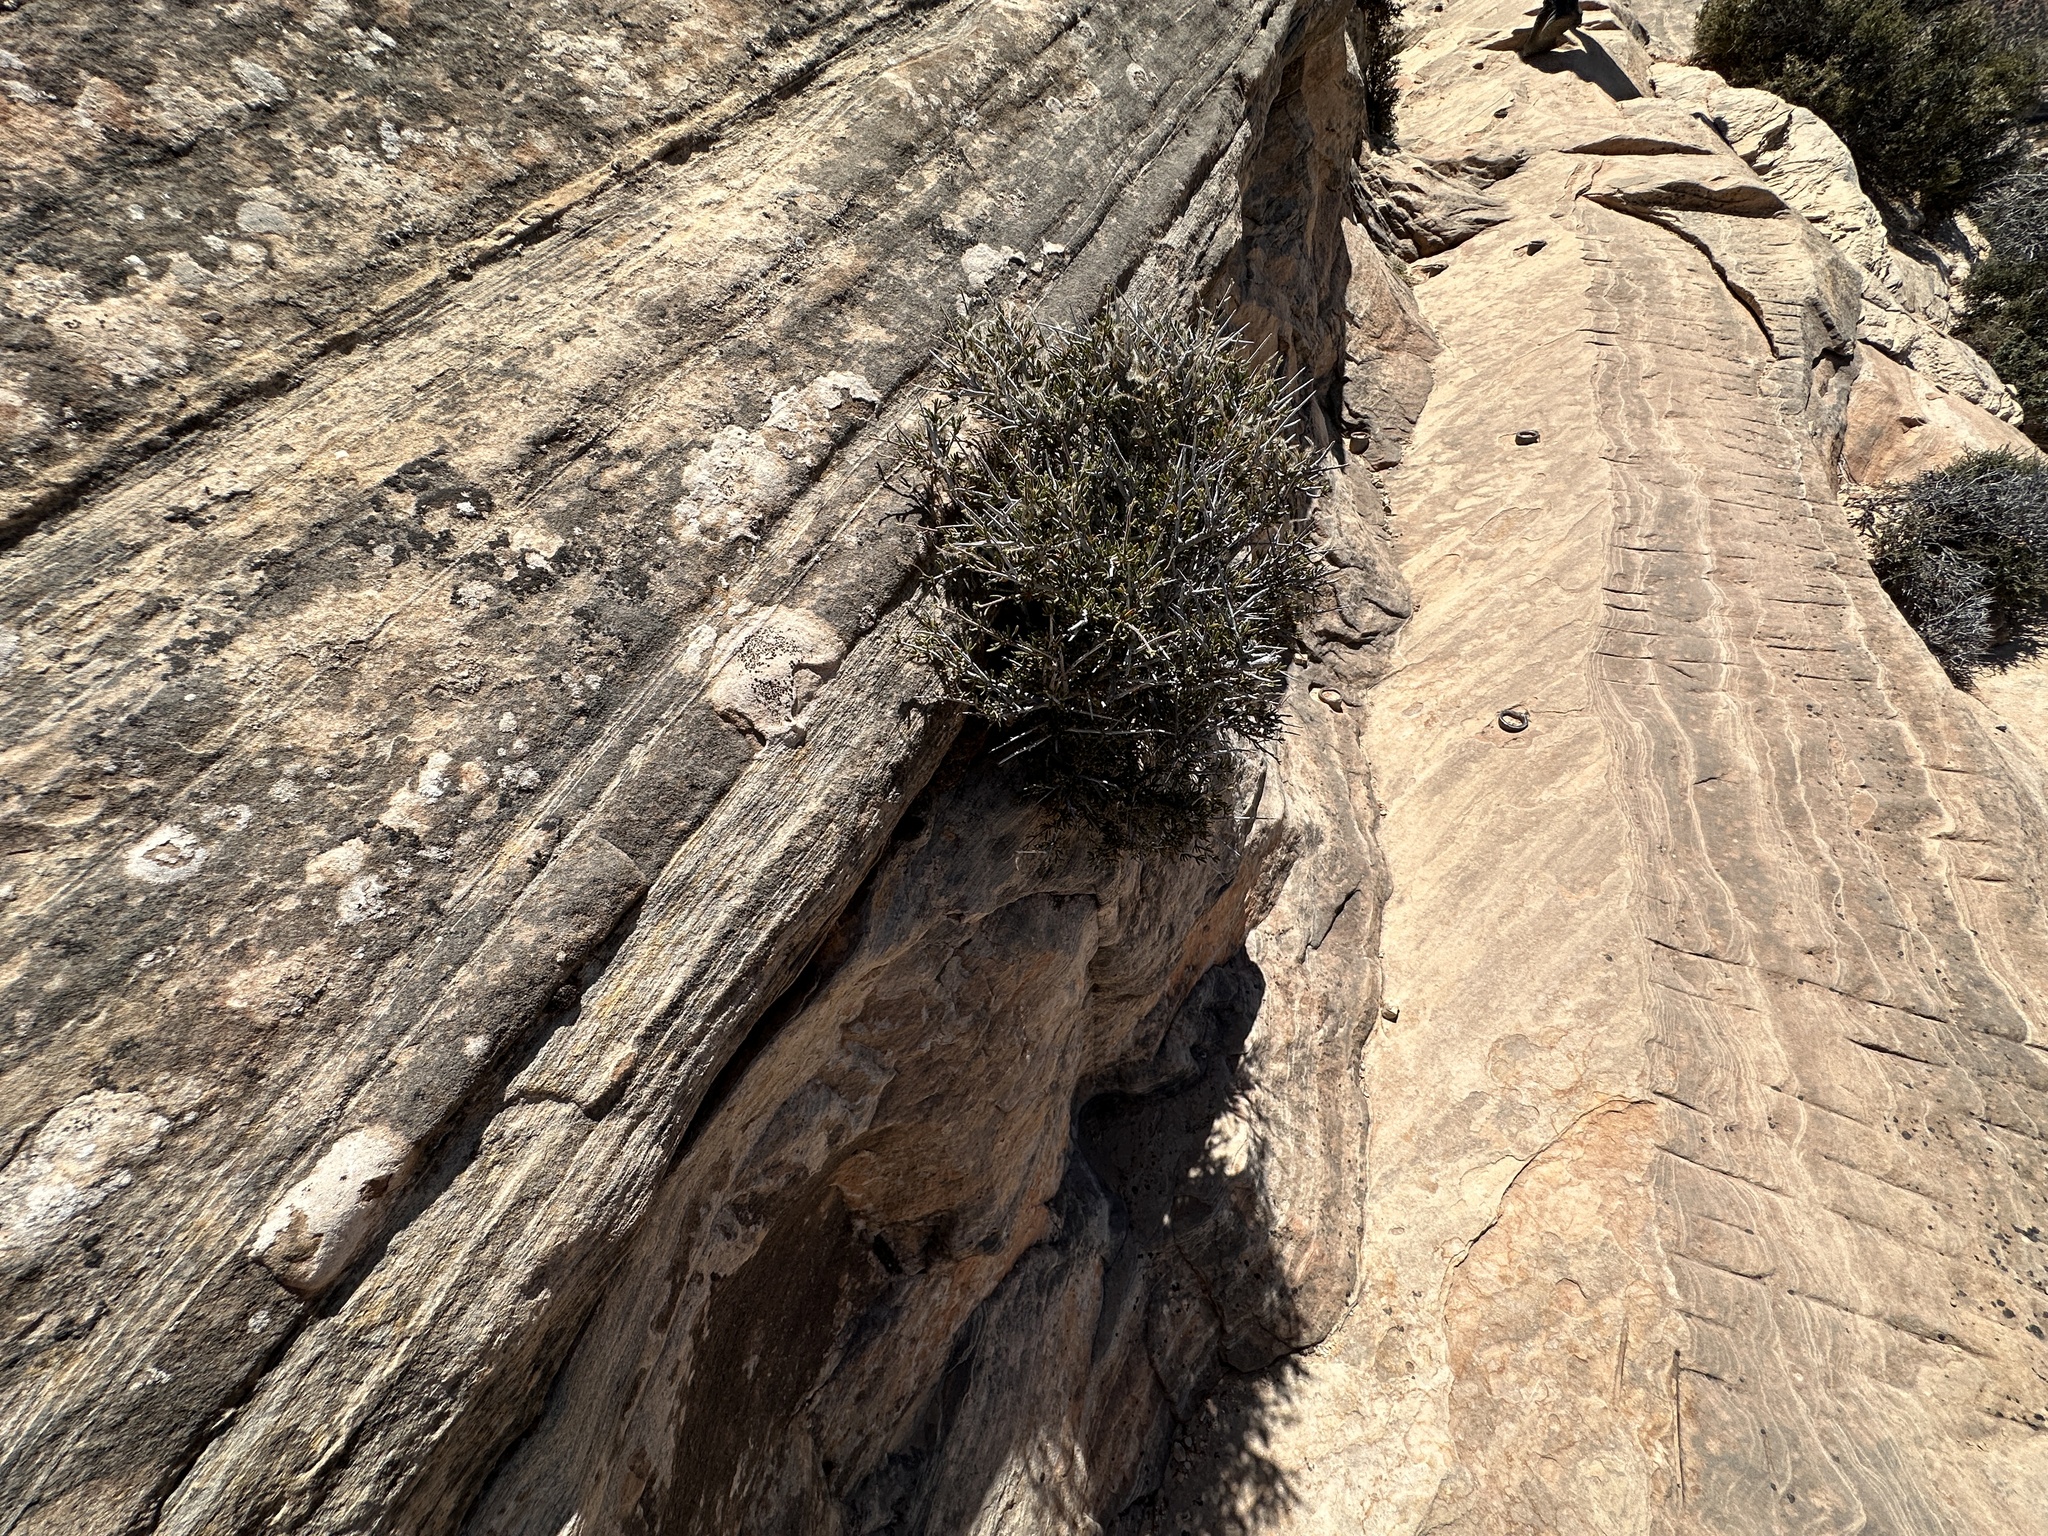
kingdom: Plantae
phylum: Tracheophyta
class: Magnoliopsida
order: Rosales
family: Rosaceae
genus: Cercocarpus
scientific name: Cercocarpus intricatus
